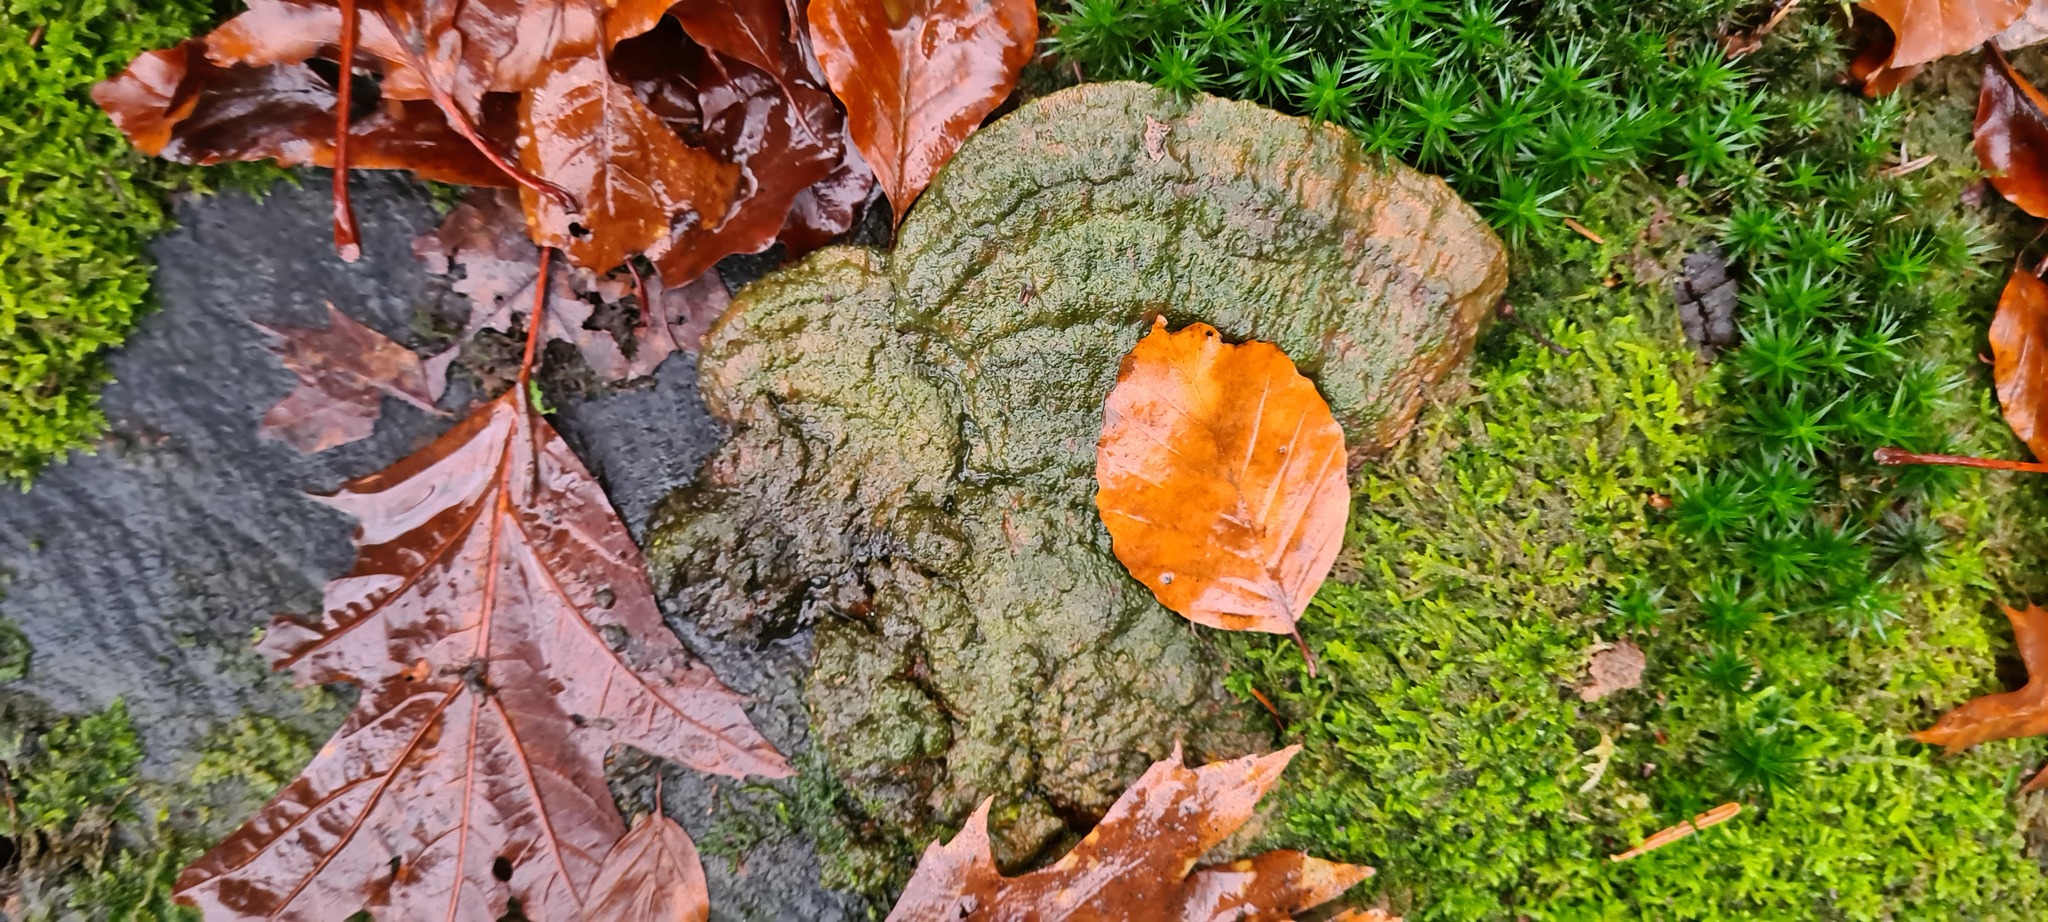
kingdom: Fungi
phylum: Basidiomycota
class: Agaricomycetes
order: Polyporales
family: Polyporaceae
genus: Trametes
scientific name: Trametes cinnabarina
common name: Northern cinnabar polypore
